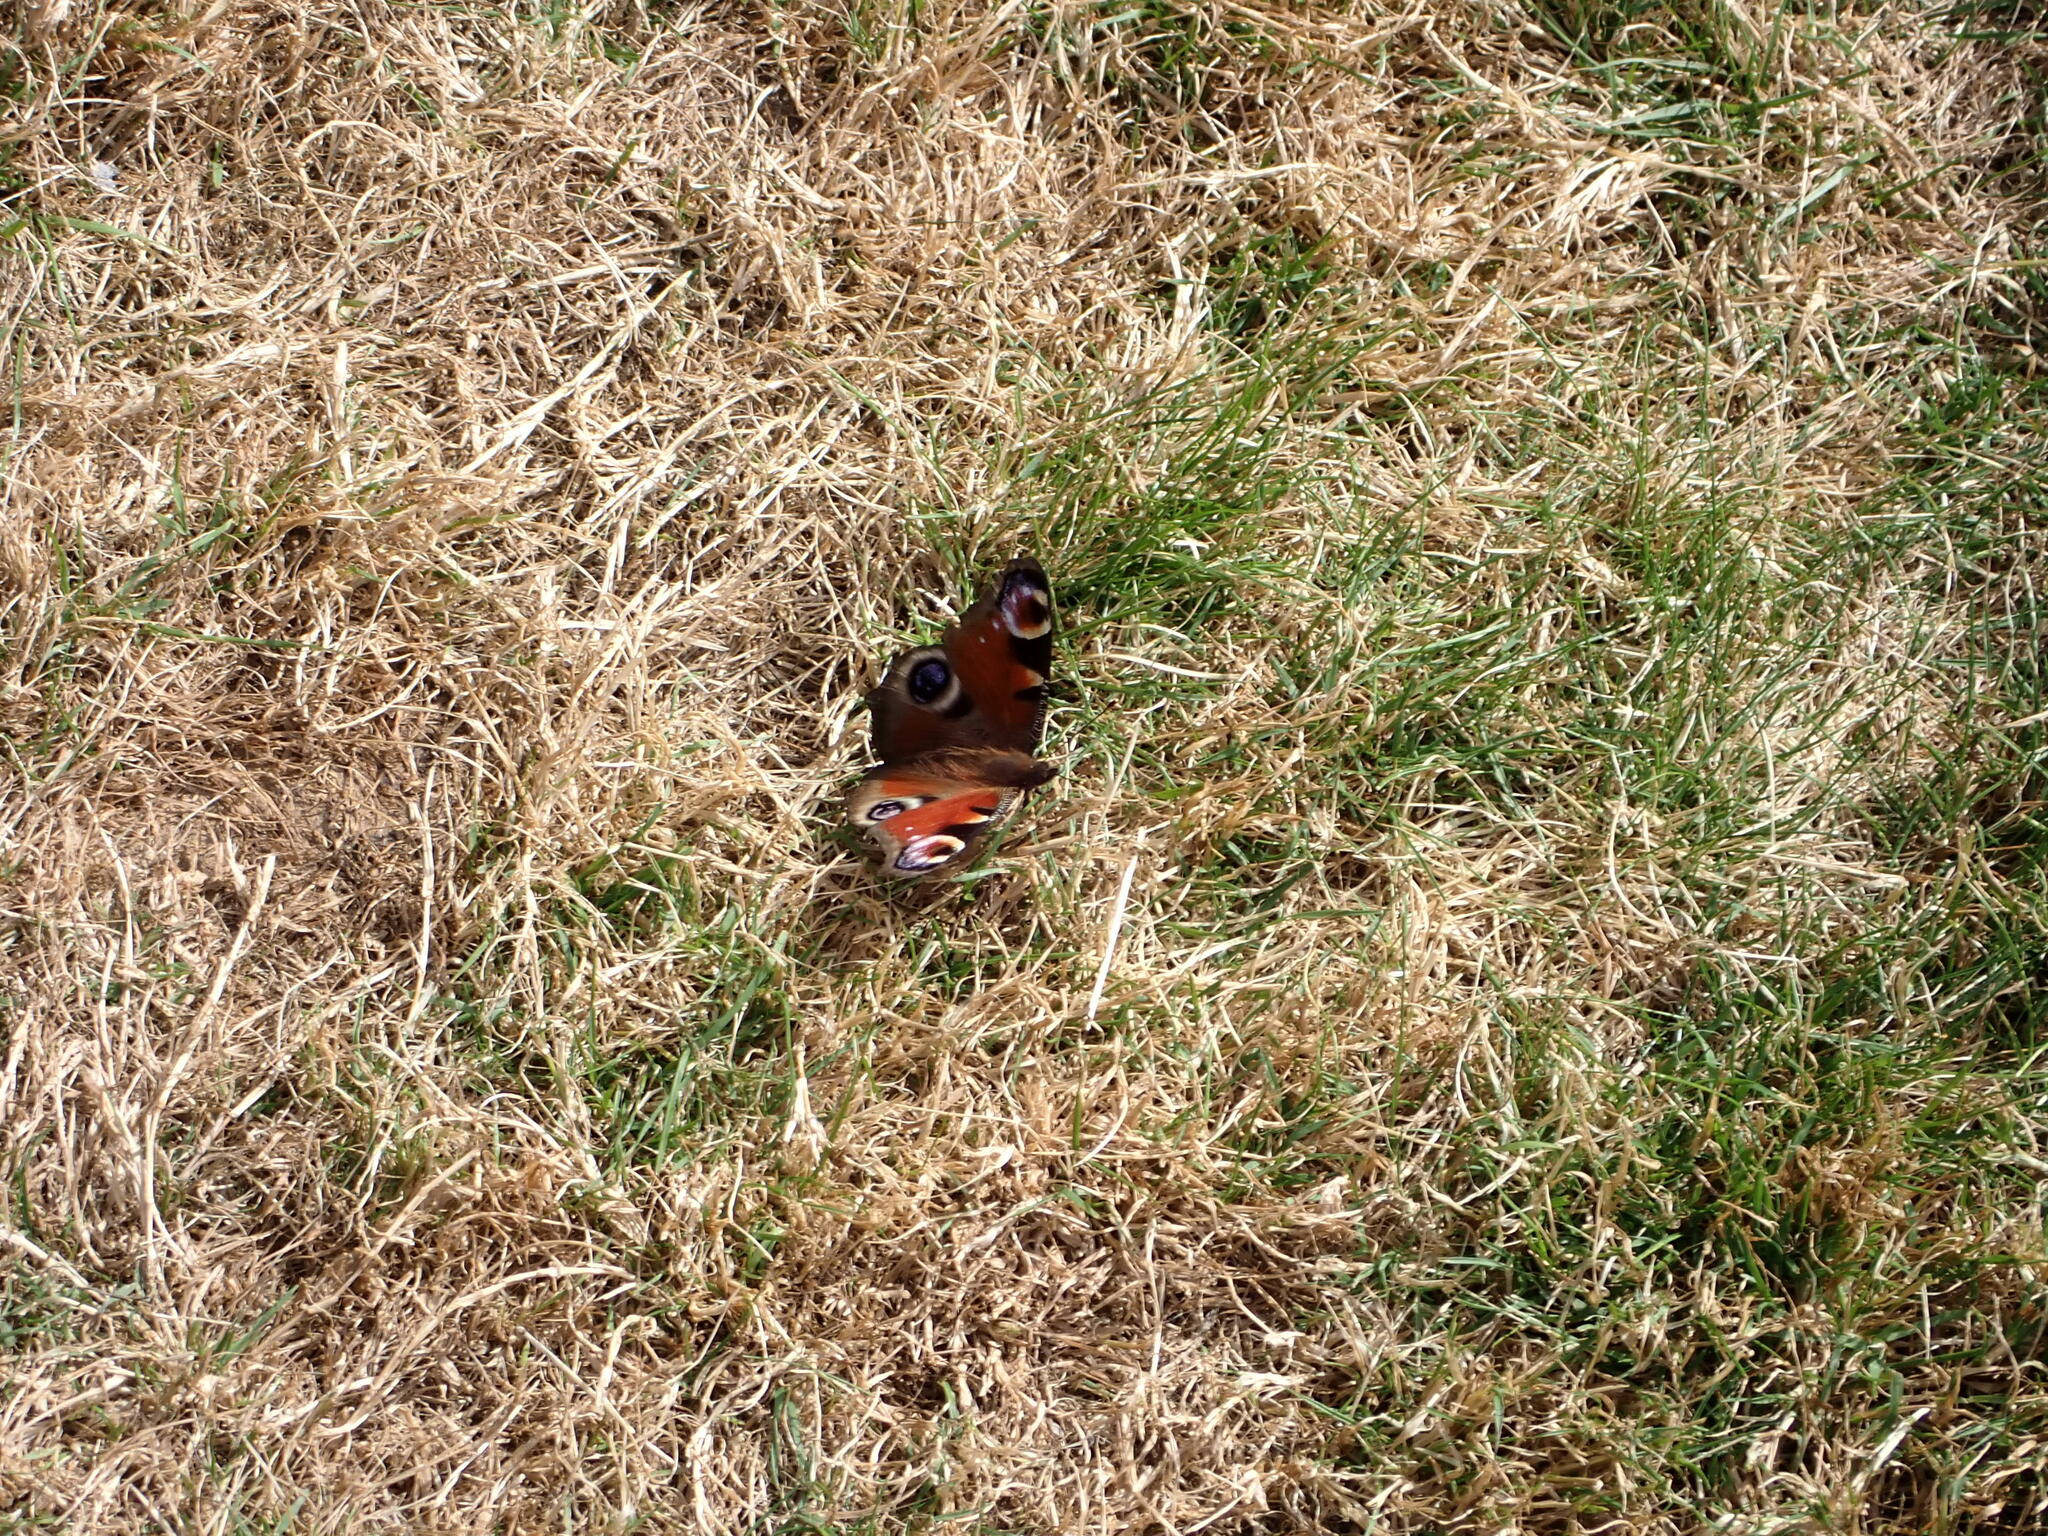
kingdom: Animalia
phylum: Arthropoda
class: Insecta
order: Lepidoptera
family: Nymphalidae
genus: Aglais
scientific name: Aglais io
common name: Peacock
